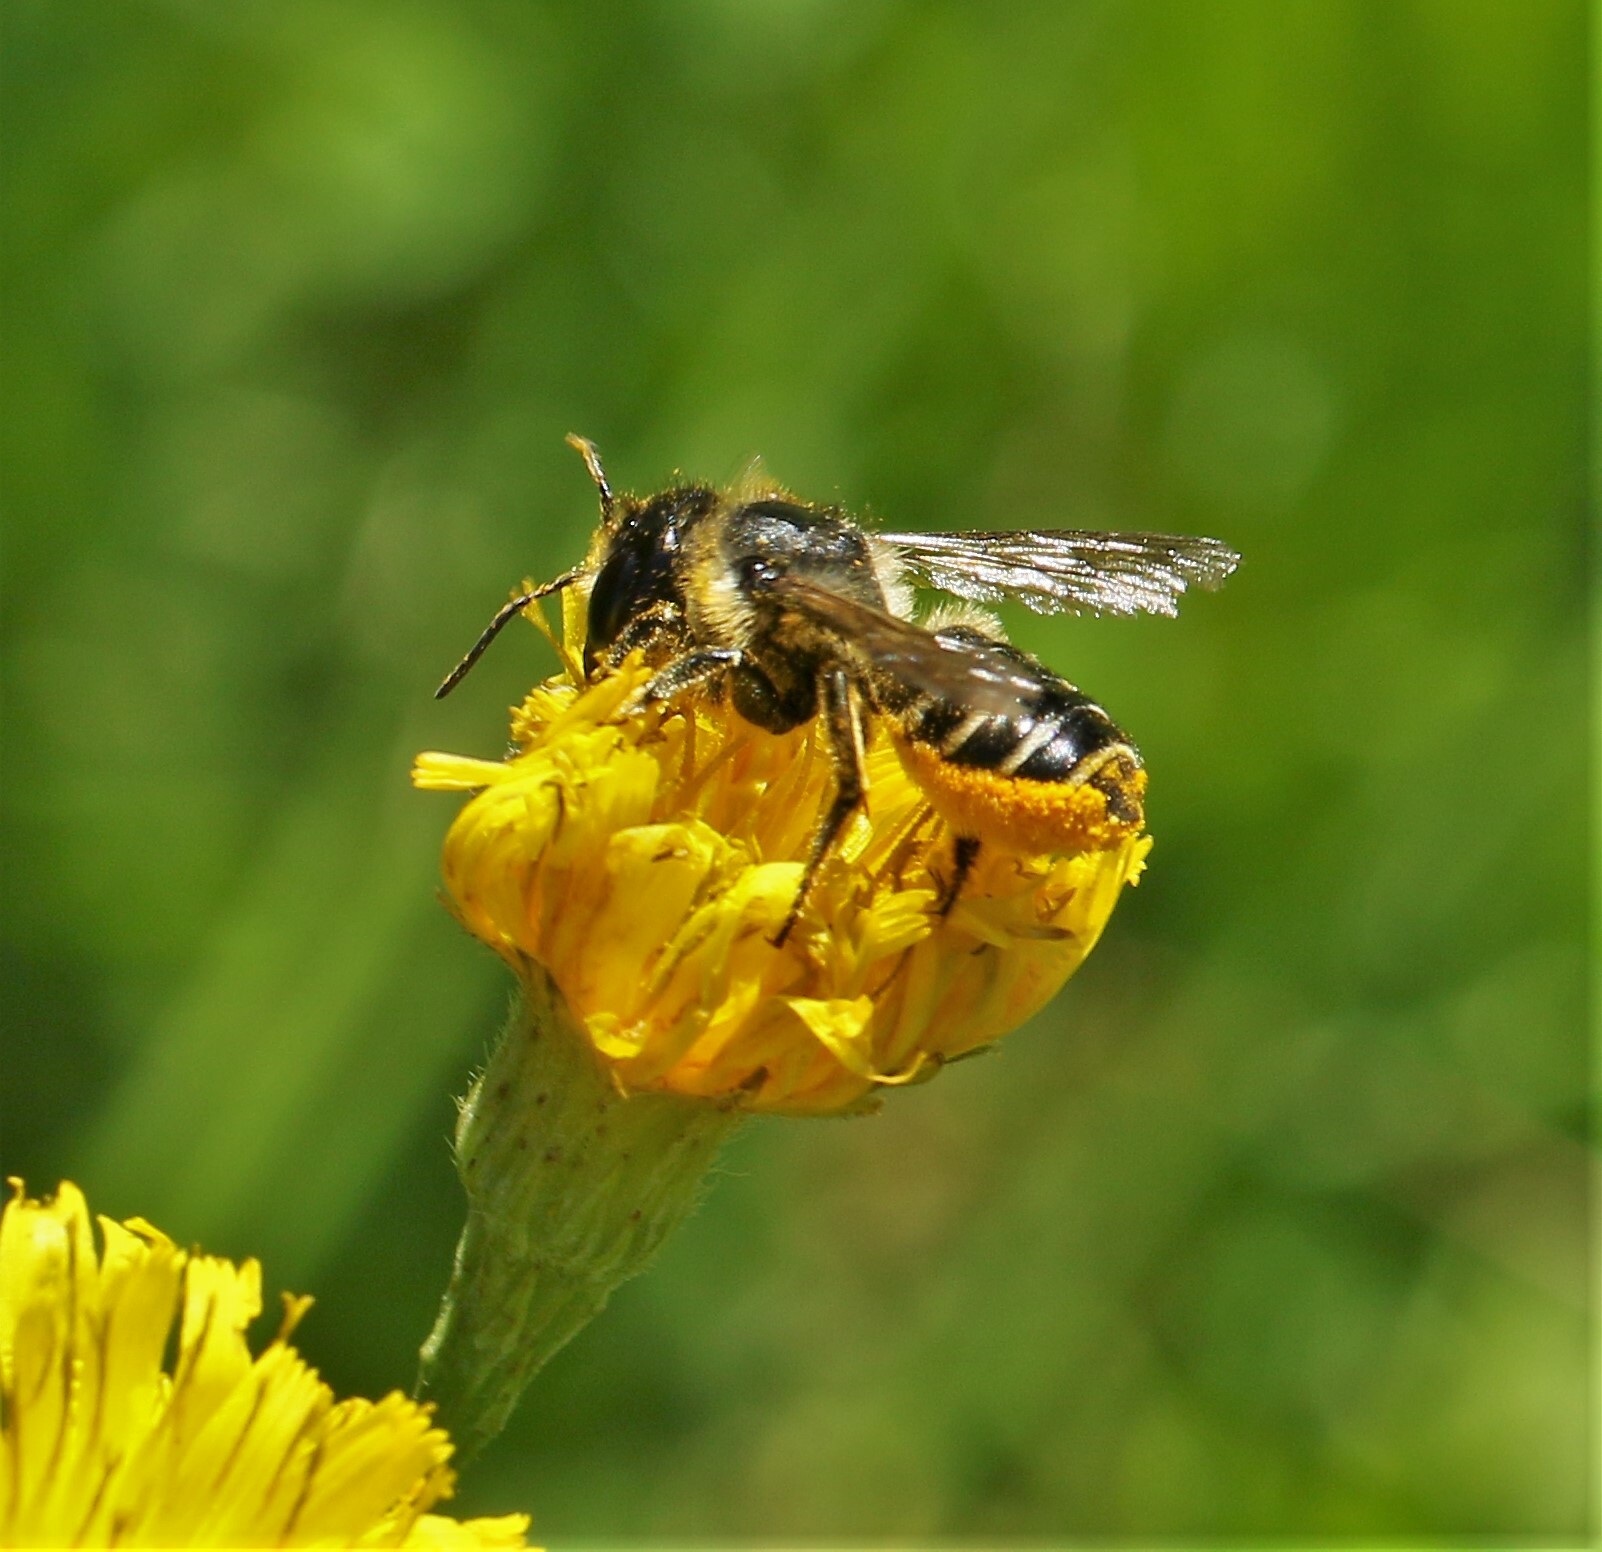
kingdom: Animalia
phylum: Arthropoda
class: Insecta
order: Hymenoptera
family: Megachilidae
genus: Megachile
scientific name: Megachile inermis
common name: Unarmed leafcutter bee
